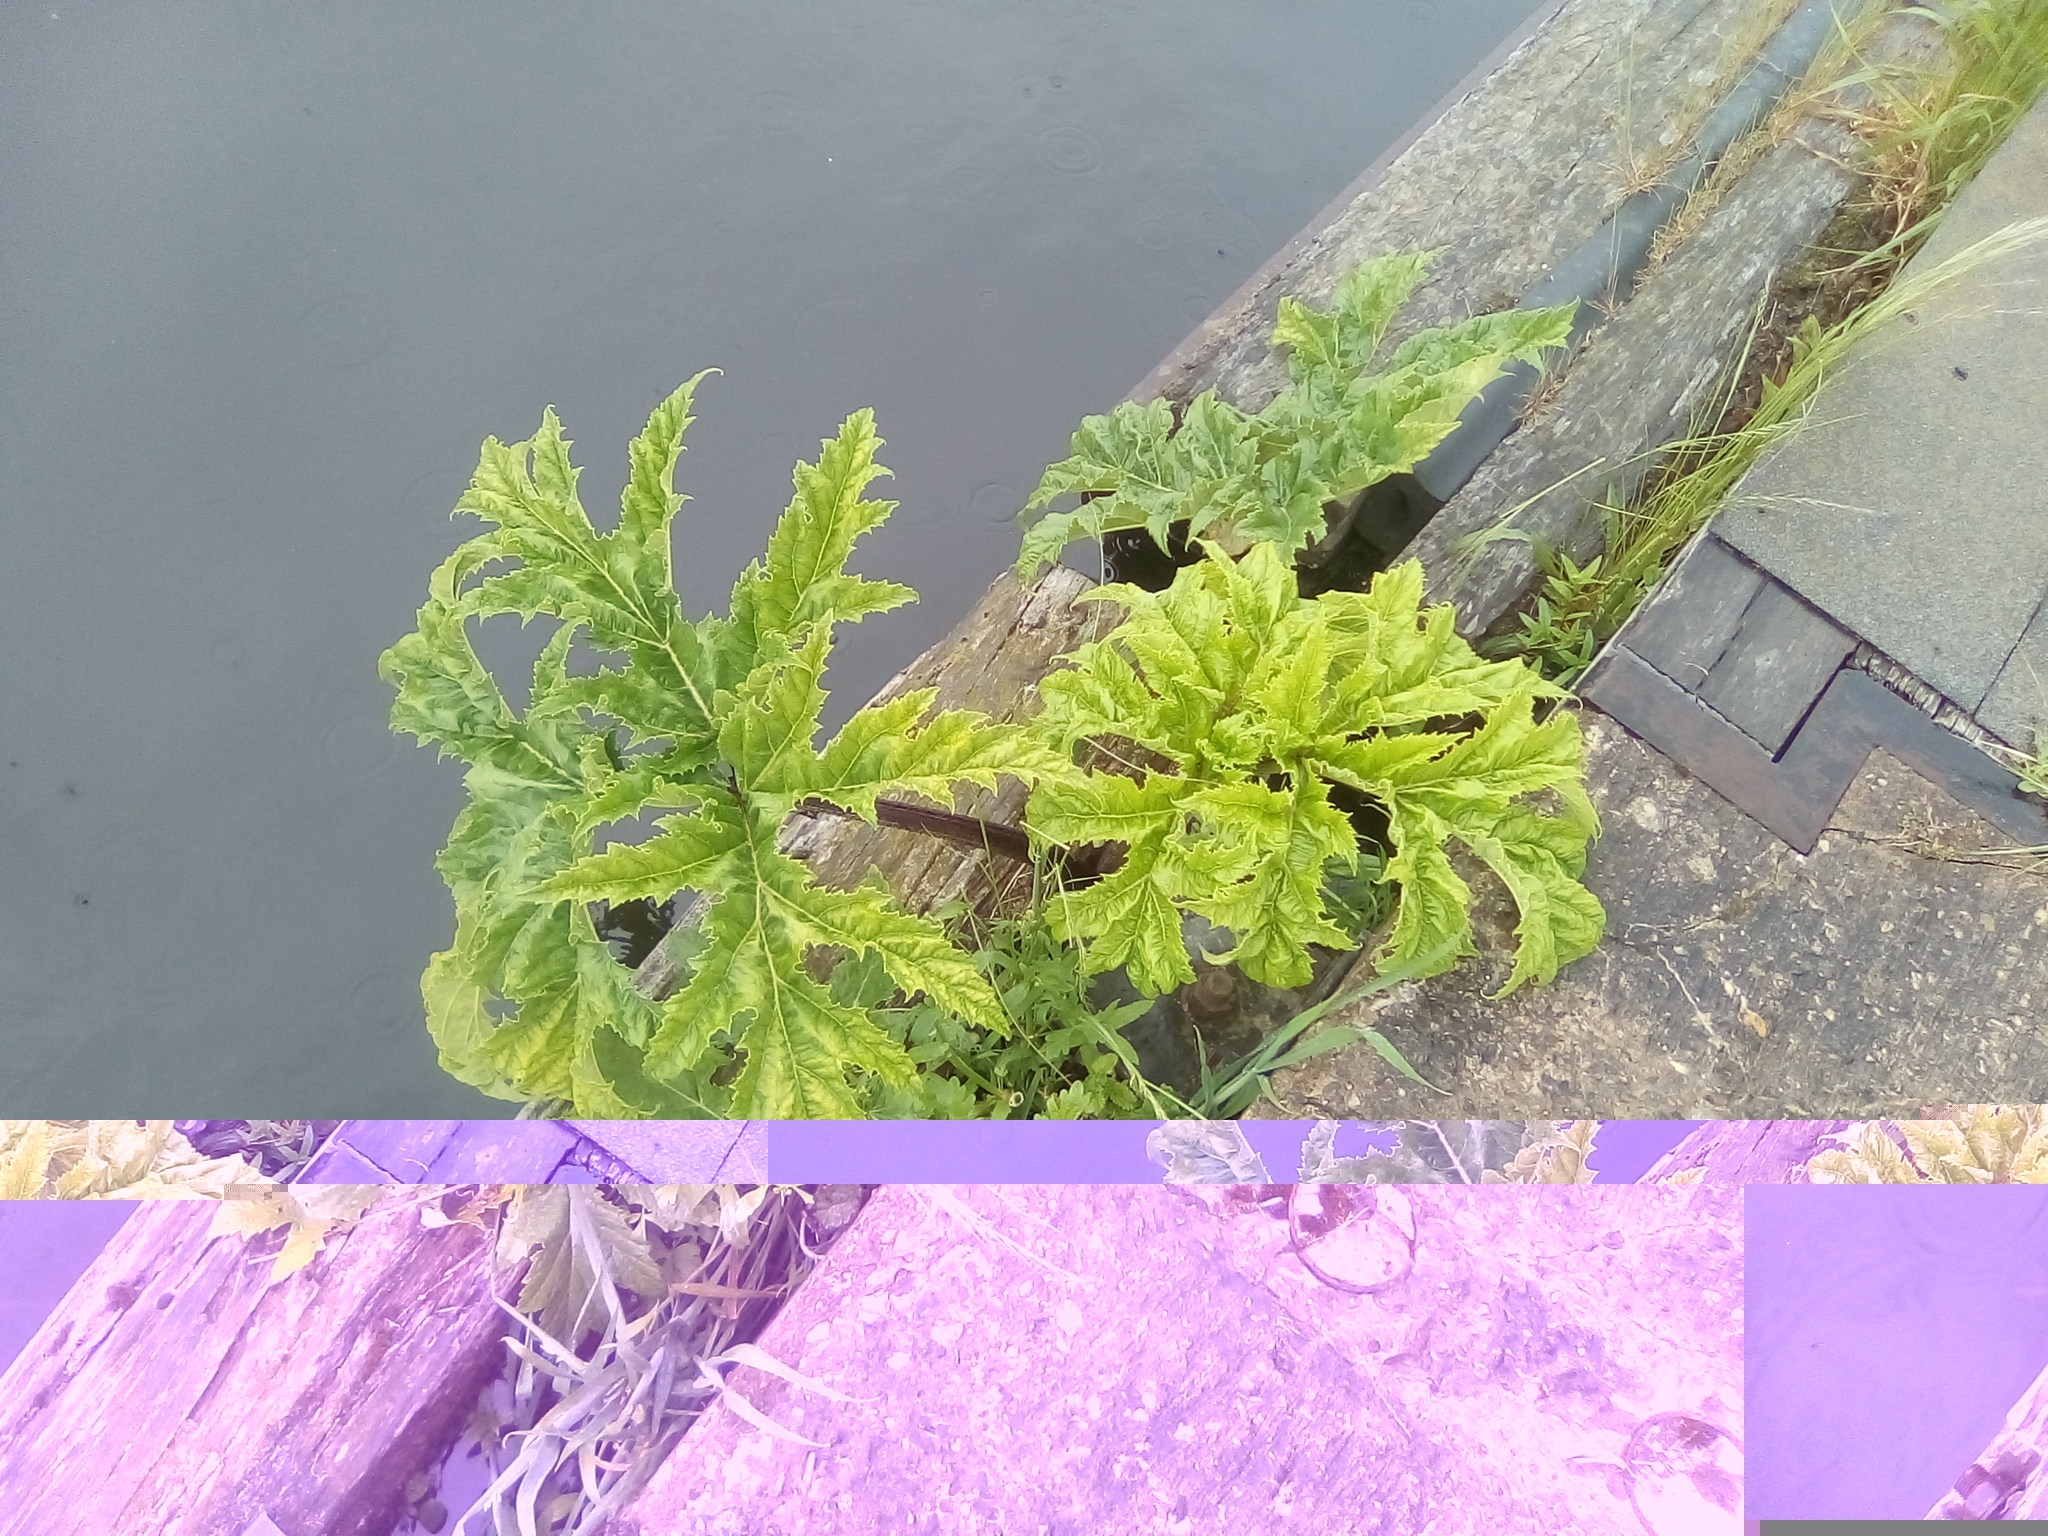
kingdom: Plantae
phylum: Tracheophyta
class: Magnoliopsida
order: Apiales
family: Apiaceae
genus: Heracleum
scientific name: Heracleum mantegazzianum
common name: Giant hogweed
